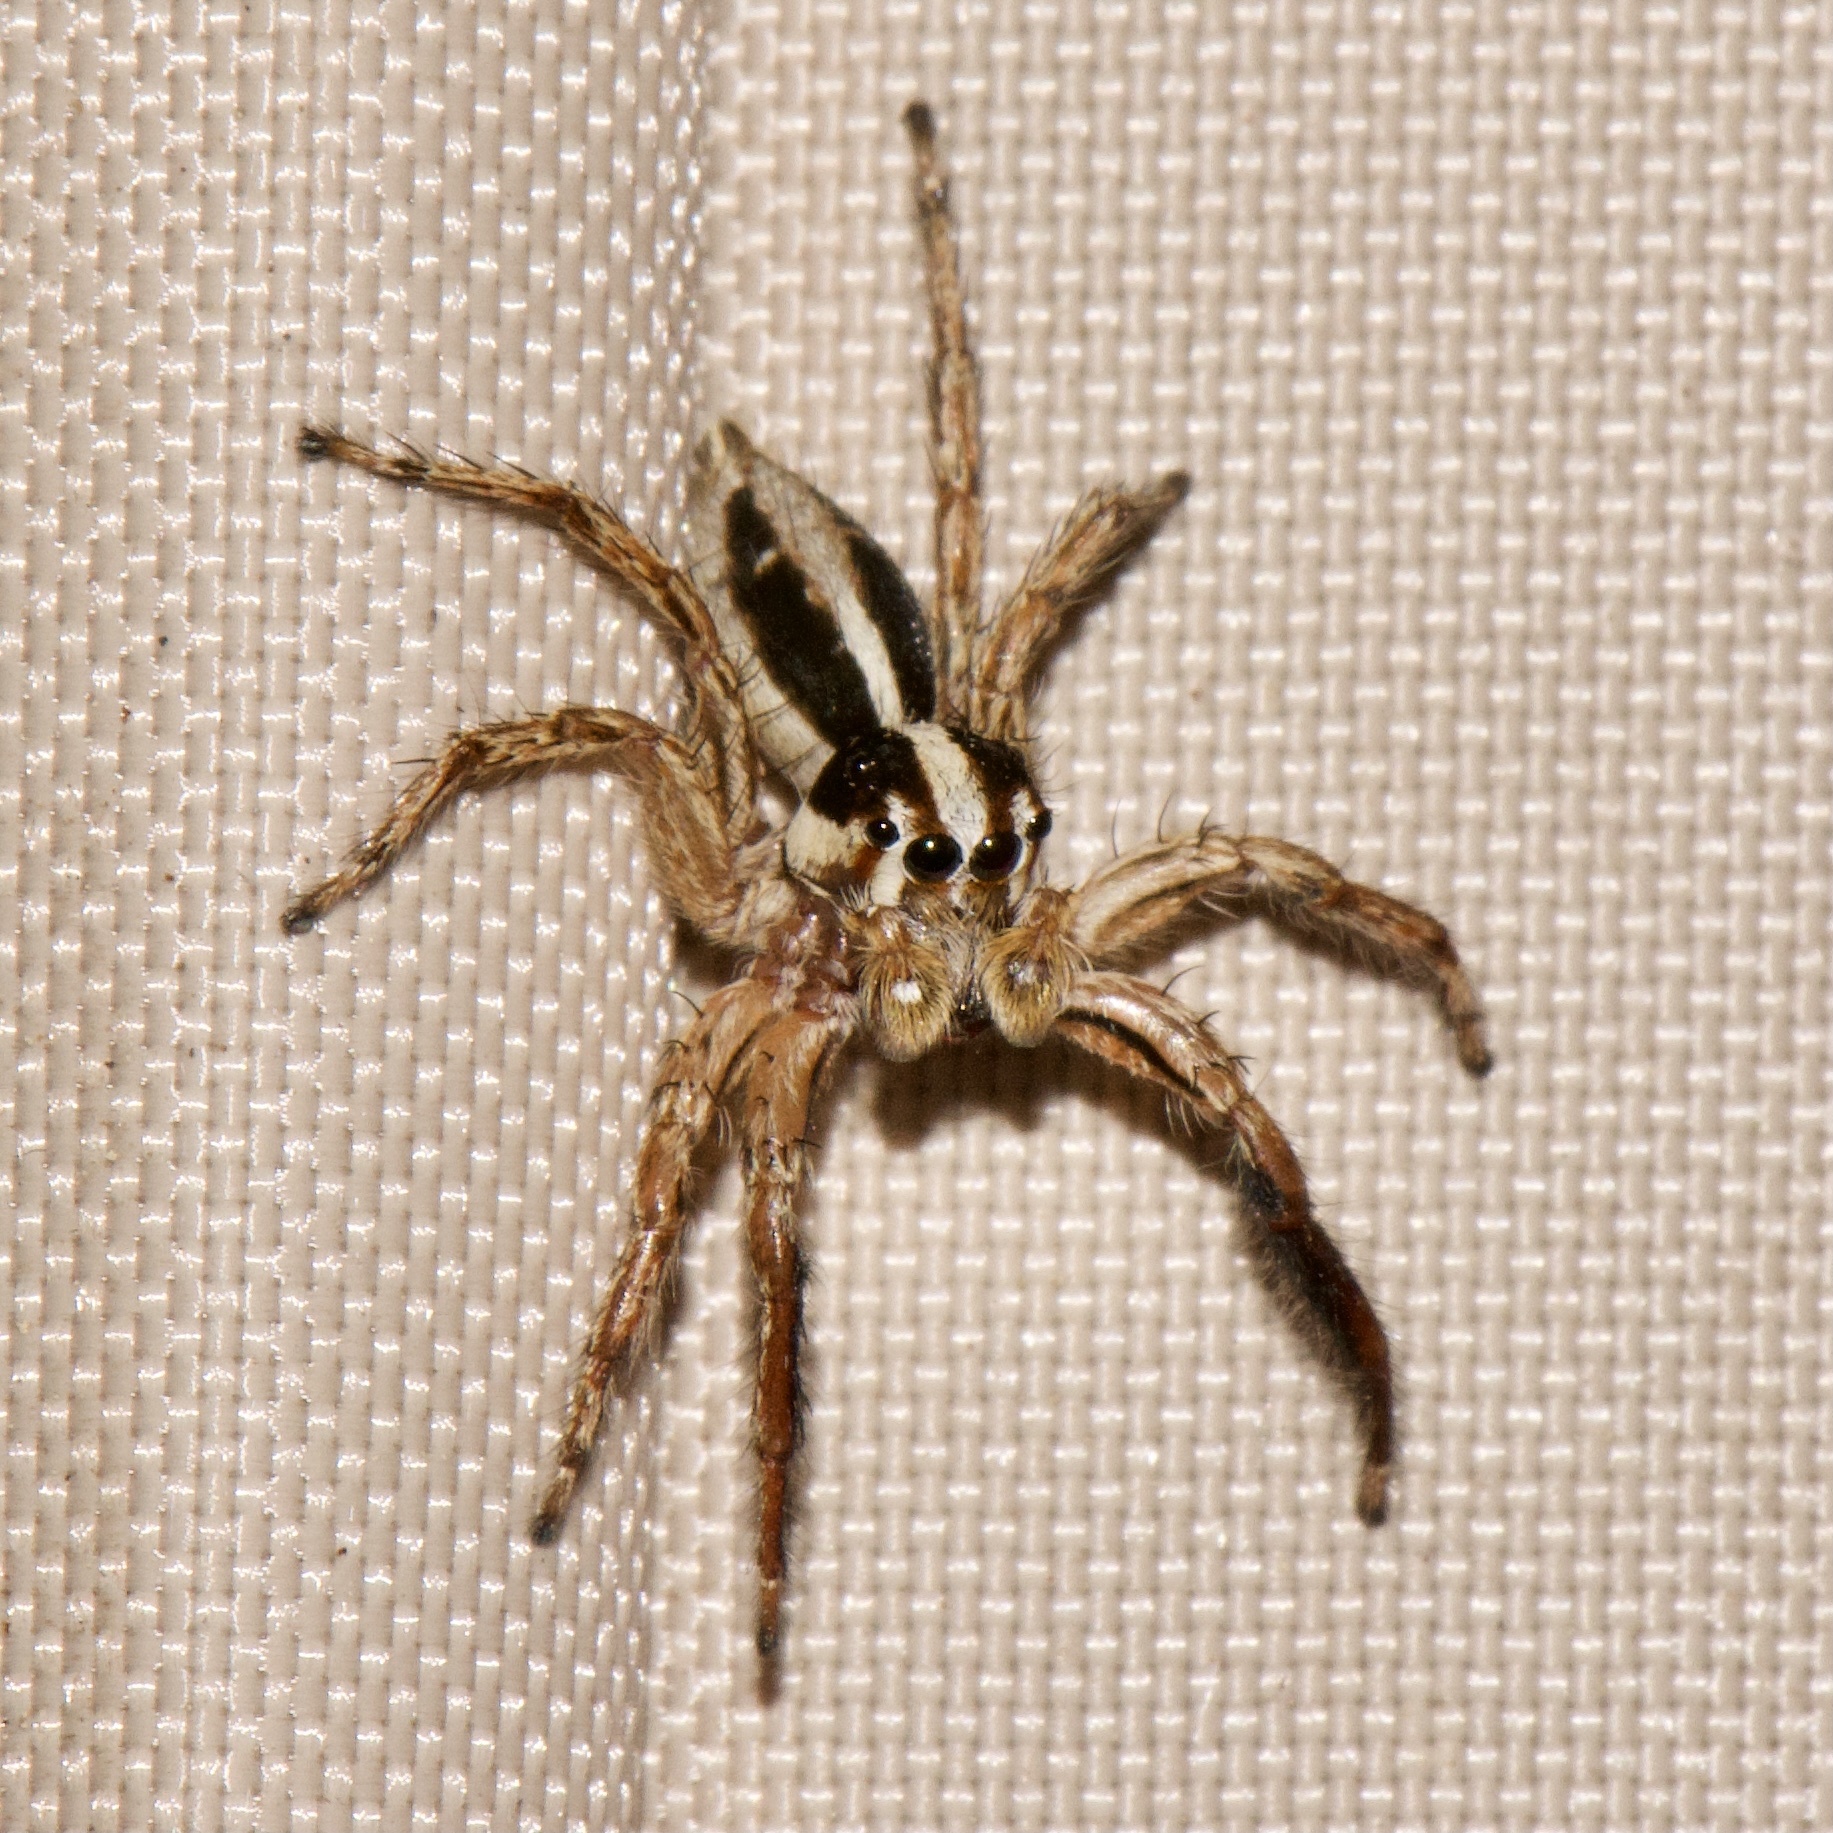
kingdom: Animalia
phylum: Arthropoda
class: Arachnida
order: Araneae
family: Salticidae
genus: Plexippus
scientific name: Plexippus paykulli
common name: Pantropical jumper
